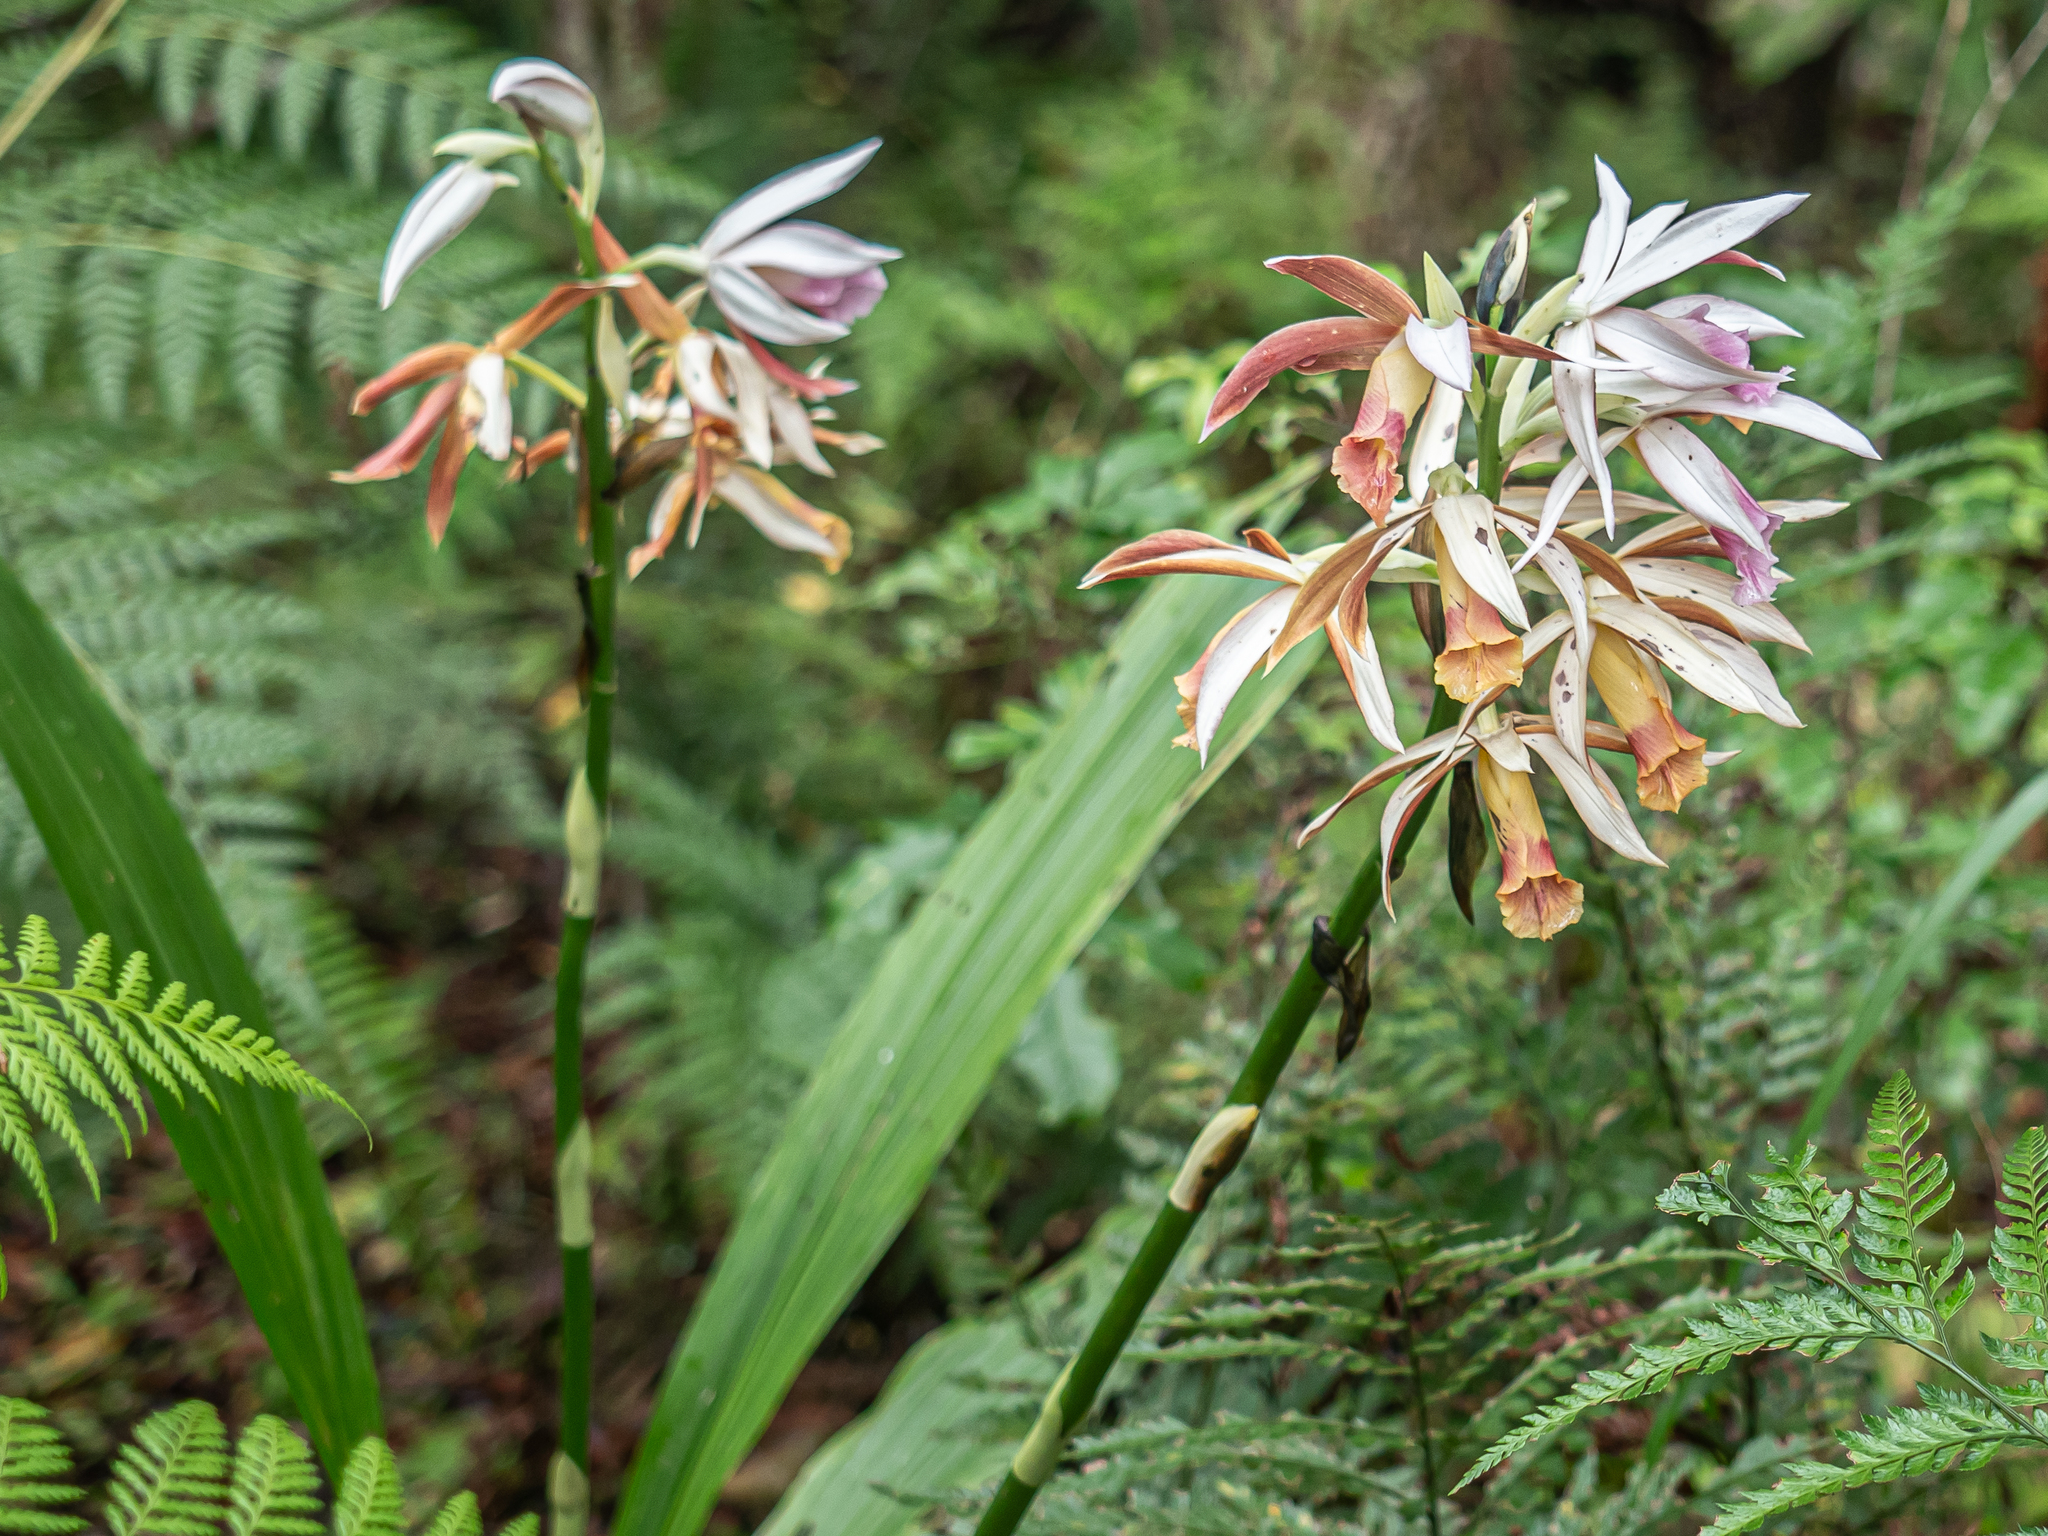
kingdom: Plantae
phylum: Tracheophyta
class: Liliopsida
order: Asparagales
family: Orchidaceae
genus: Calanthe
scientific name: Calanthe tankervilleae
